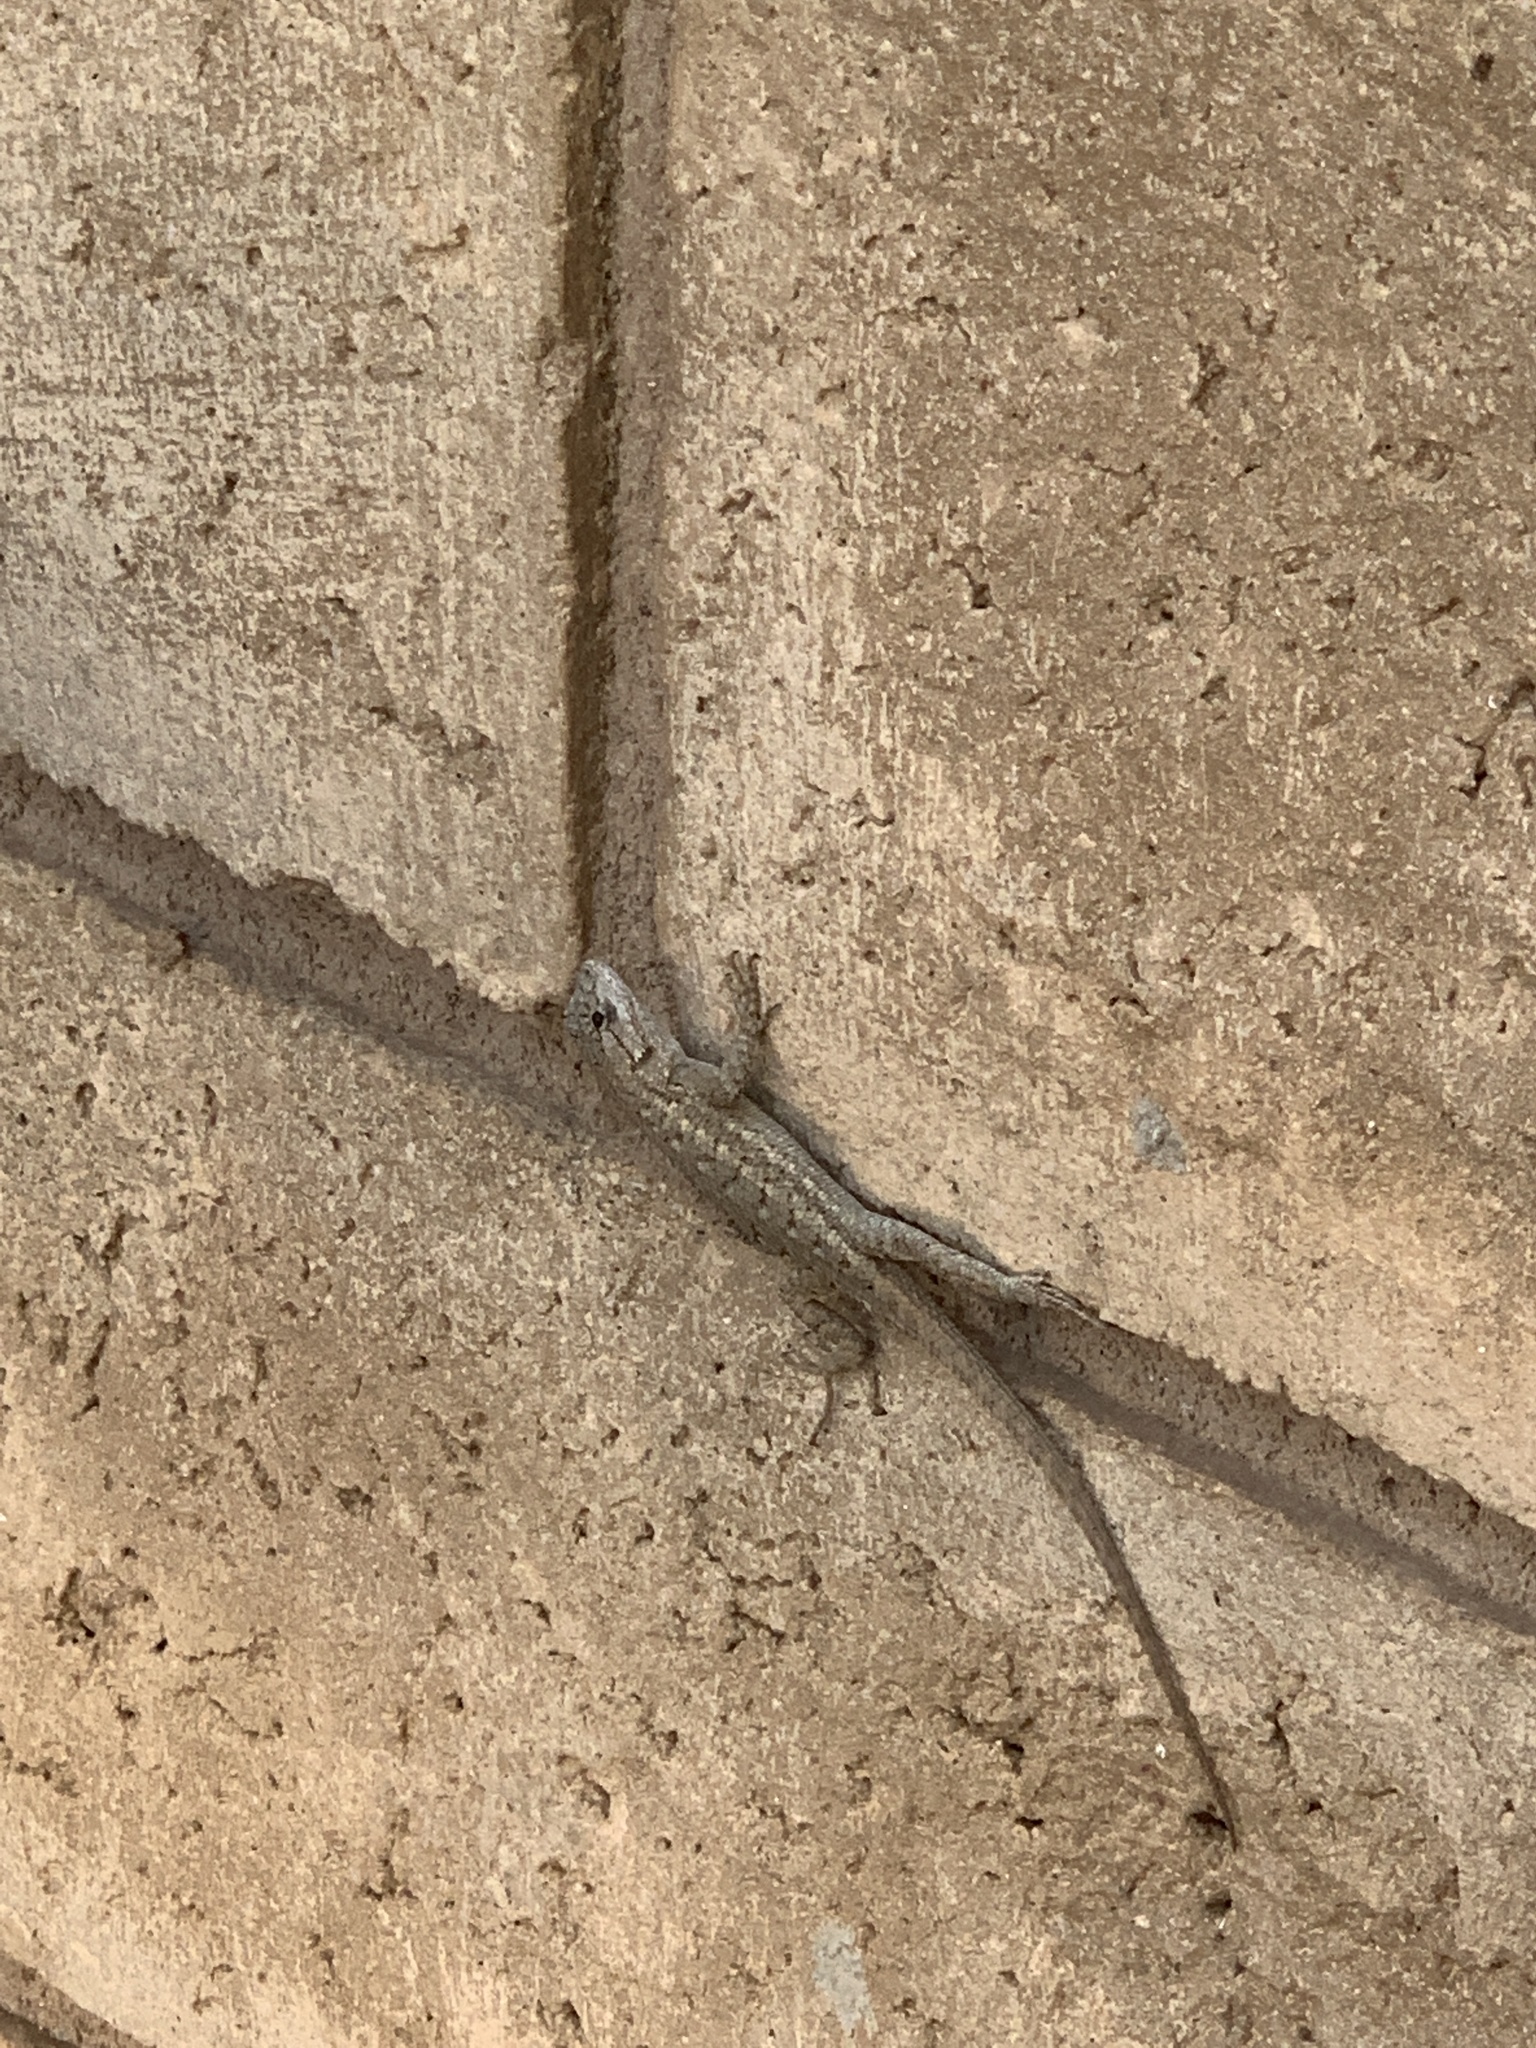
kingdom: Animalia
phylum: Chordata
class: Squamata
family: Phrynosomatidae
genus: Sceloporus
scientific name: Sceloporus occidentalis
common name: Western fence lizard
